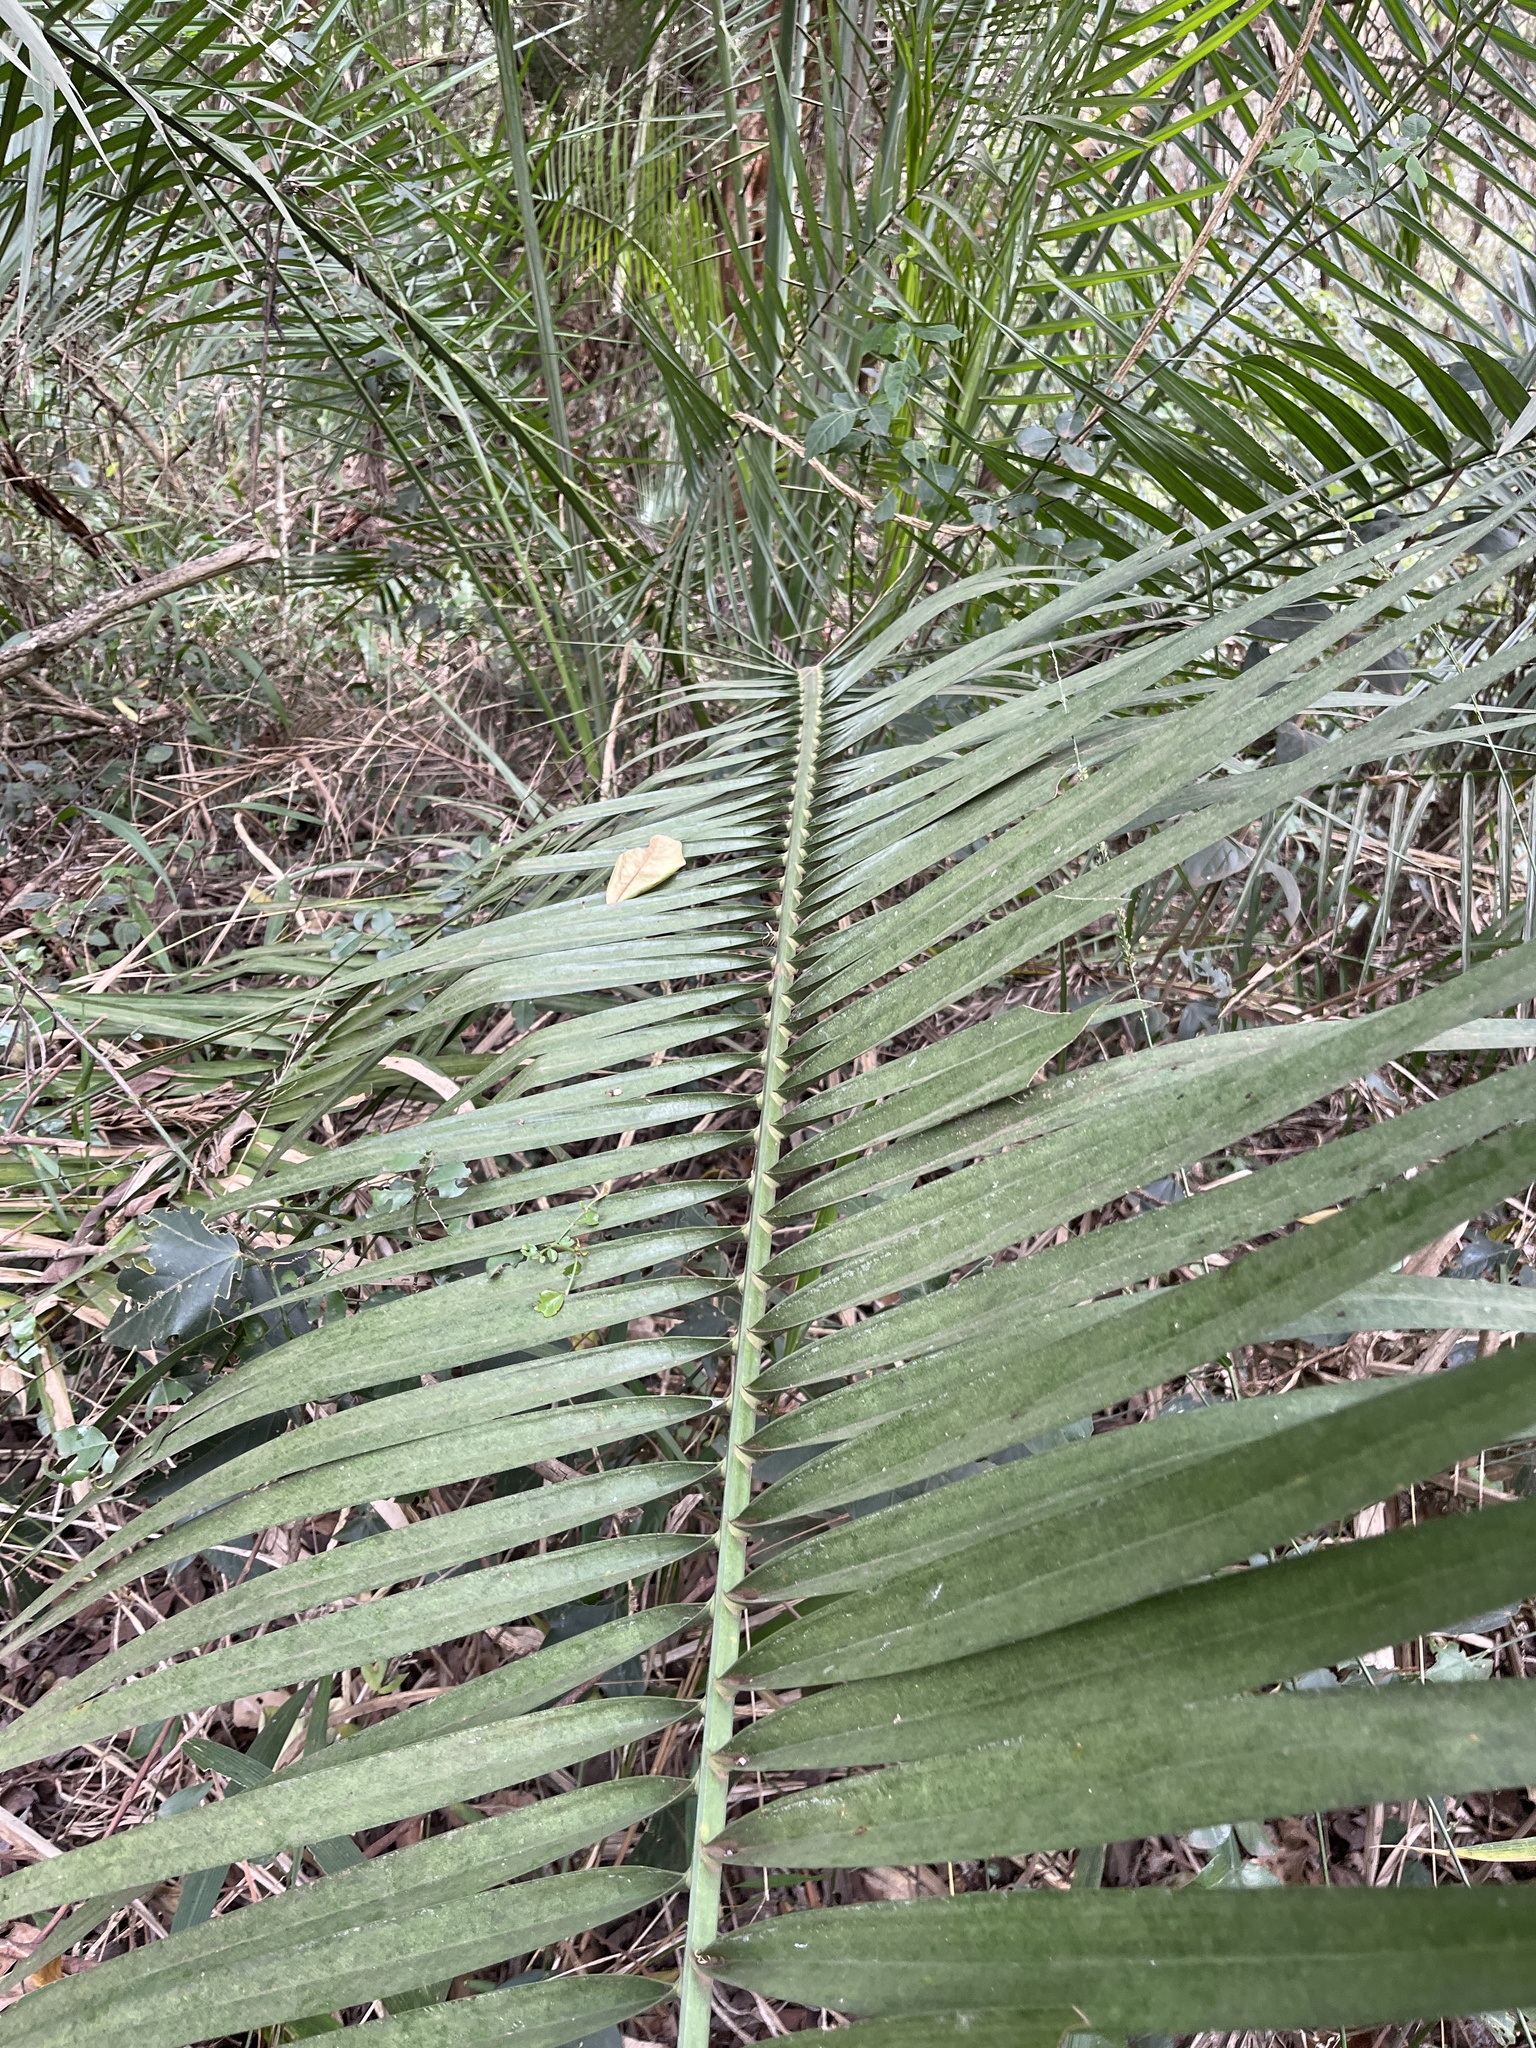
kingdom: Plantae
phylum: Tracheophyta
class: Liliopsida
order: Arecales
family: Arecaceae
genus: Phoenix
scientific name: Phoenix reclinata
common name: Senegal date palm
